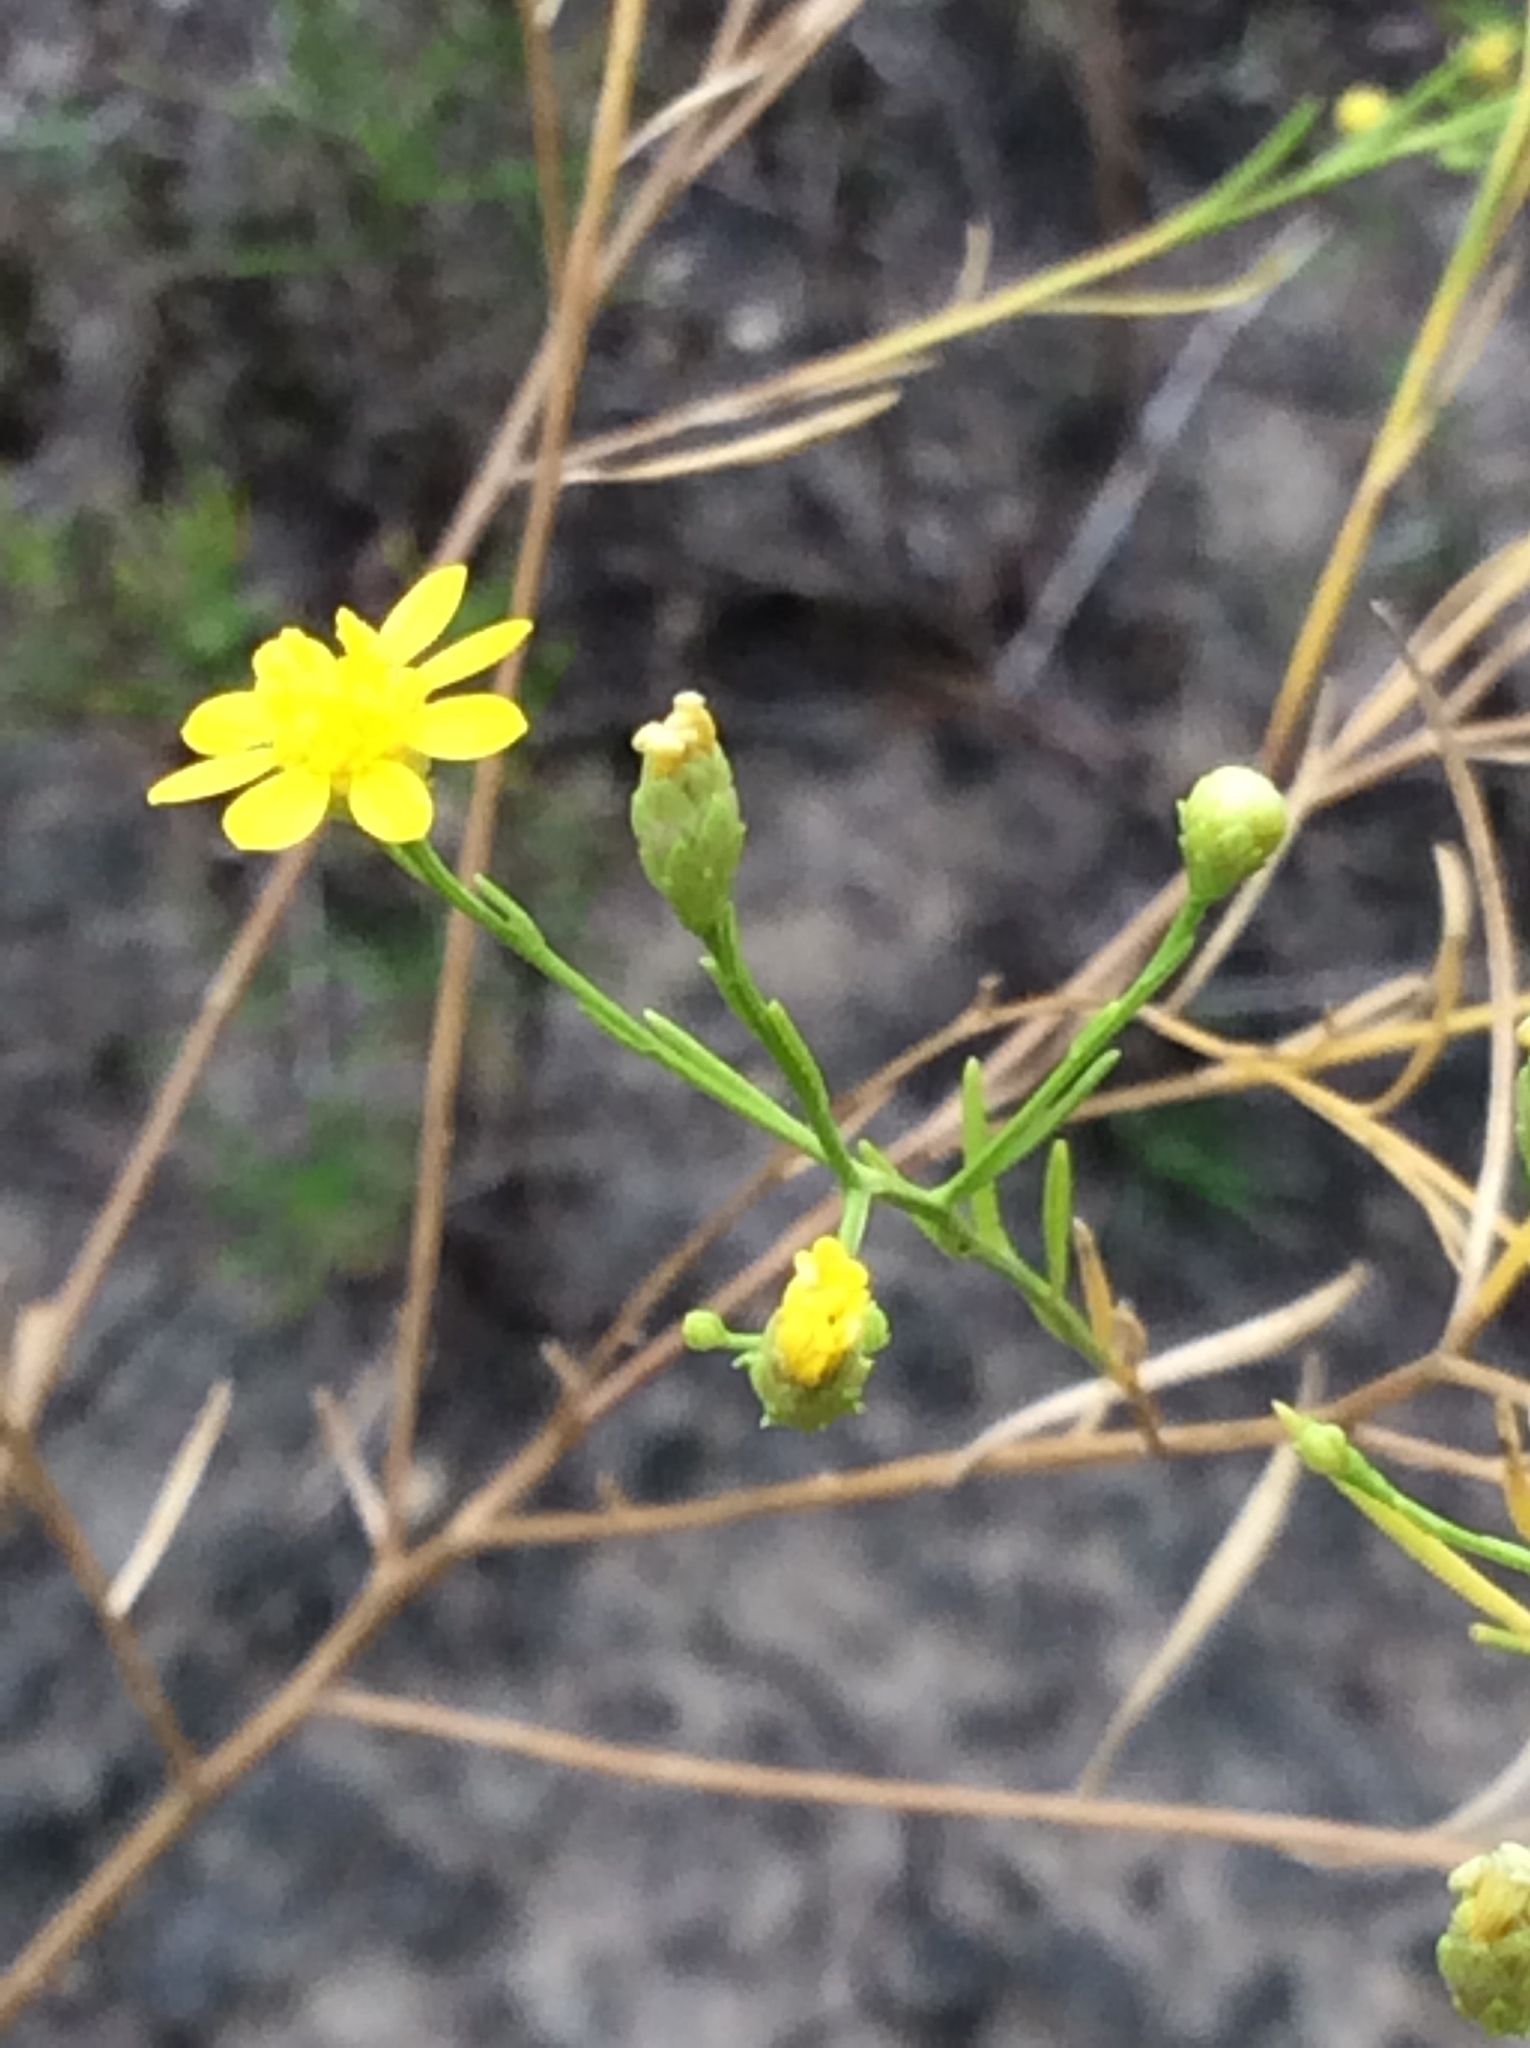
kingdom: Plantae
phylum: Tracheophyta
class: Magnoliopsida
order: Asterales
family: Asteraceae
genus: Amphiachyris
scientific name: Amphiachyris dracunculoides
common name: Broomweed
